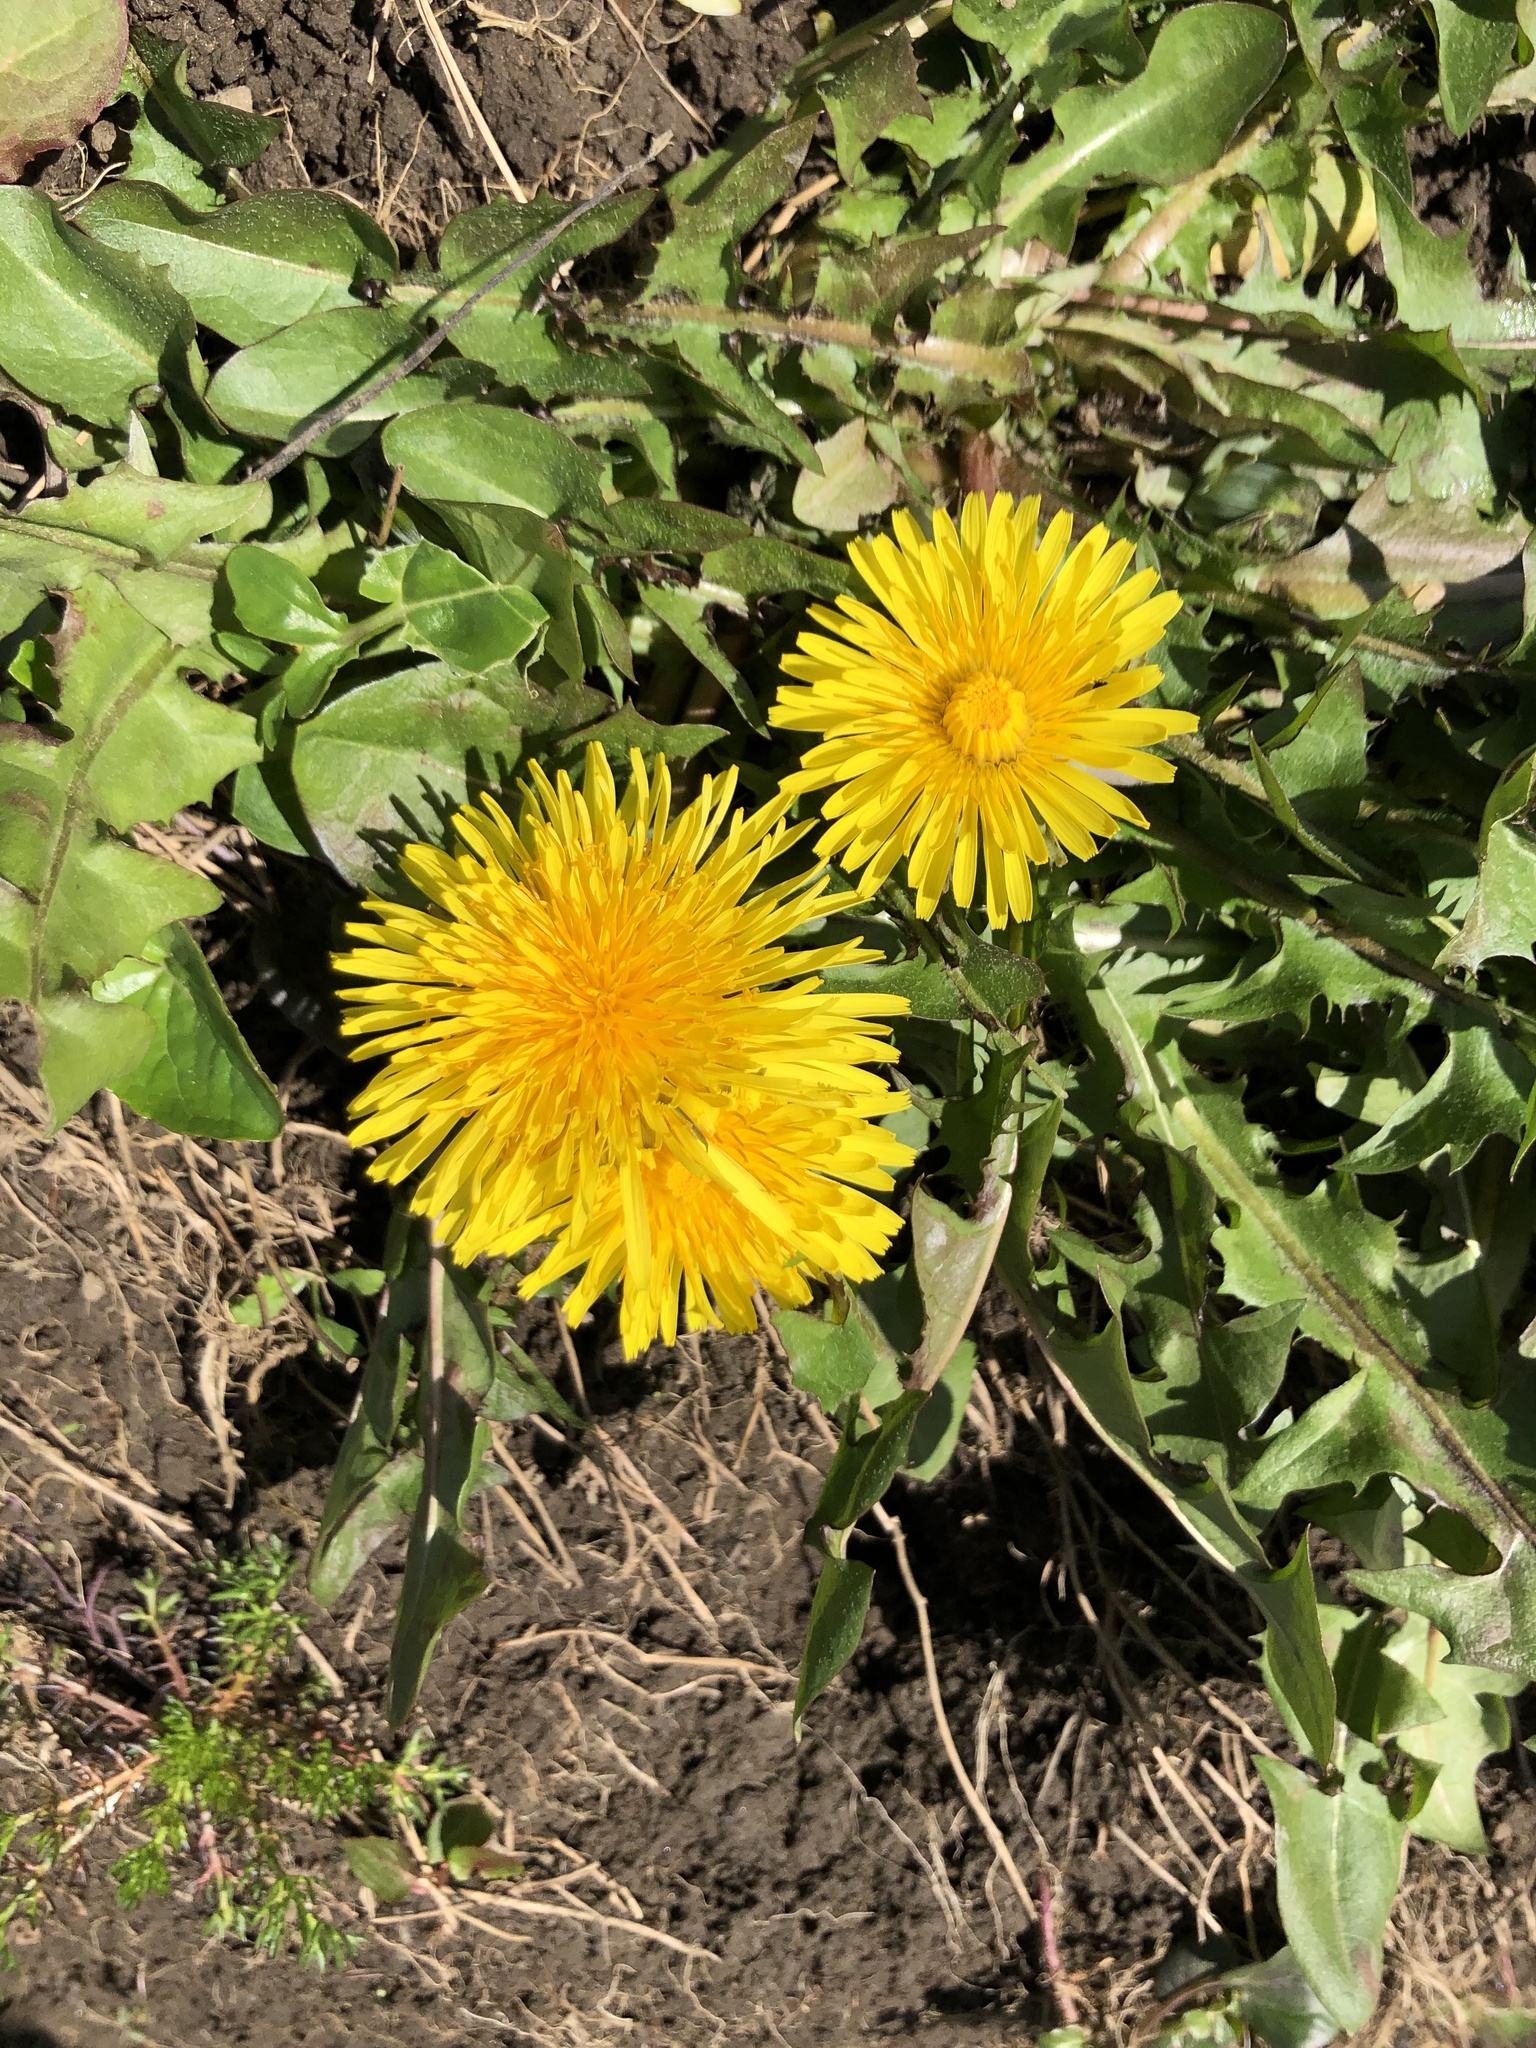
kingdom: Plantae
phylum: Tracheophyta
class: Magnoliopsida
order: Asterales
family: Asteraceae
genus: Taraxacum
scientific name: Taraxacum officinale
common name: Common dandelion
